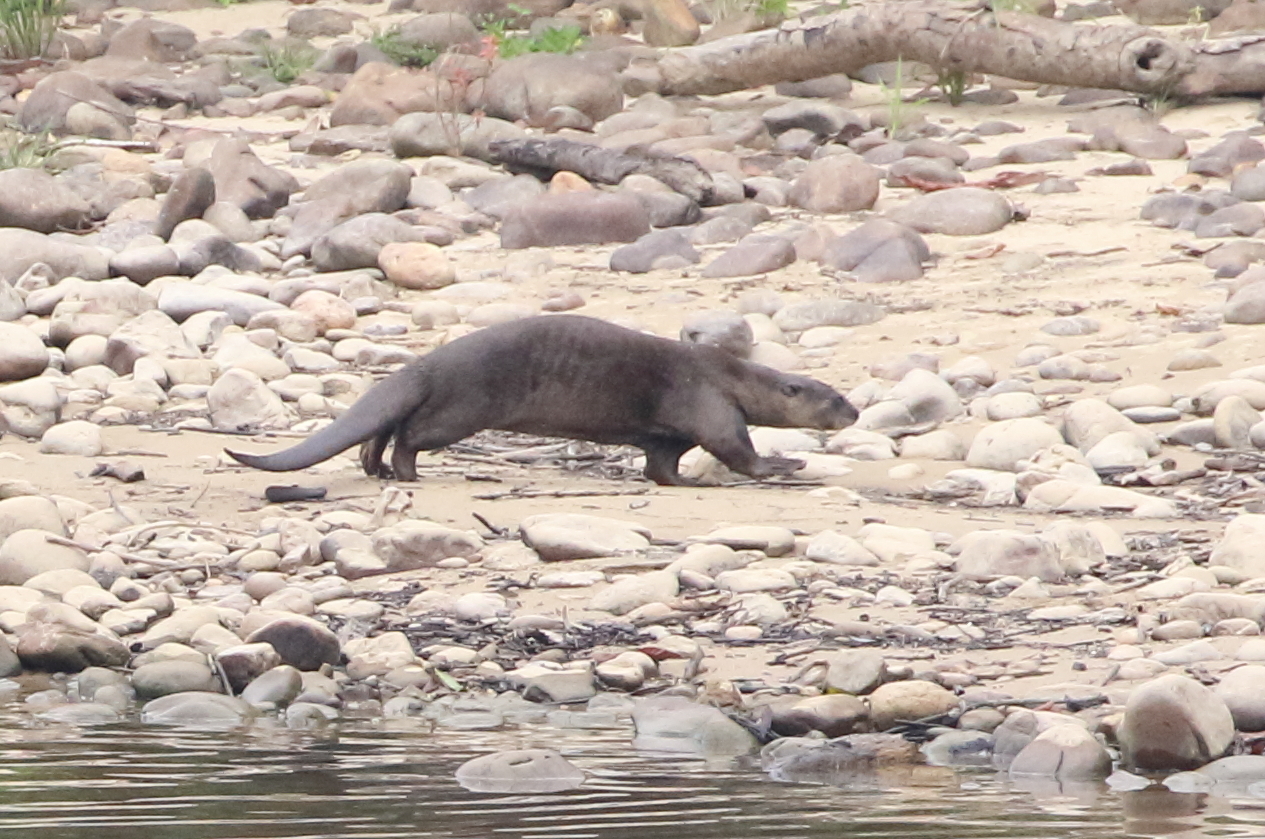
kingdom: Animalia
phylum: Chordata
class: Mammalia
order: Carnivora
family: Mustelidae
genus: Lutrogale
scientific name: Lutrogale perspicillata
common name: Smooth-coated otter
